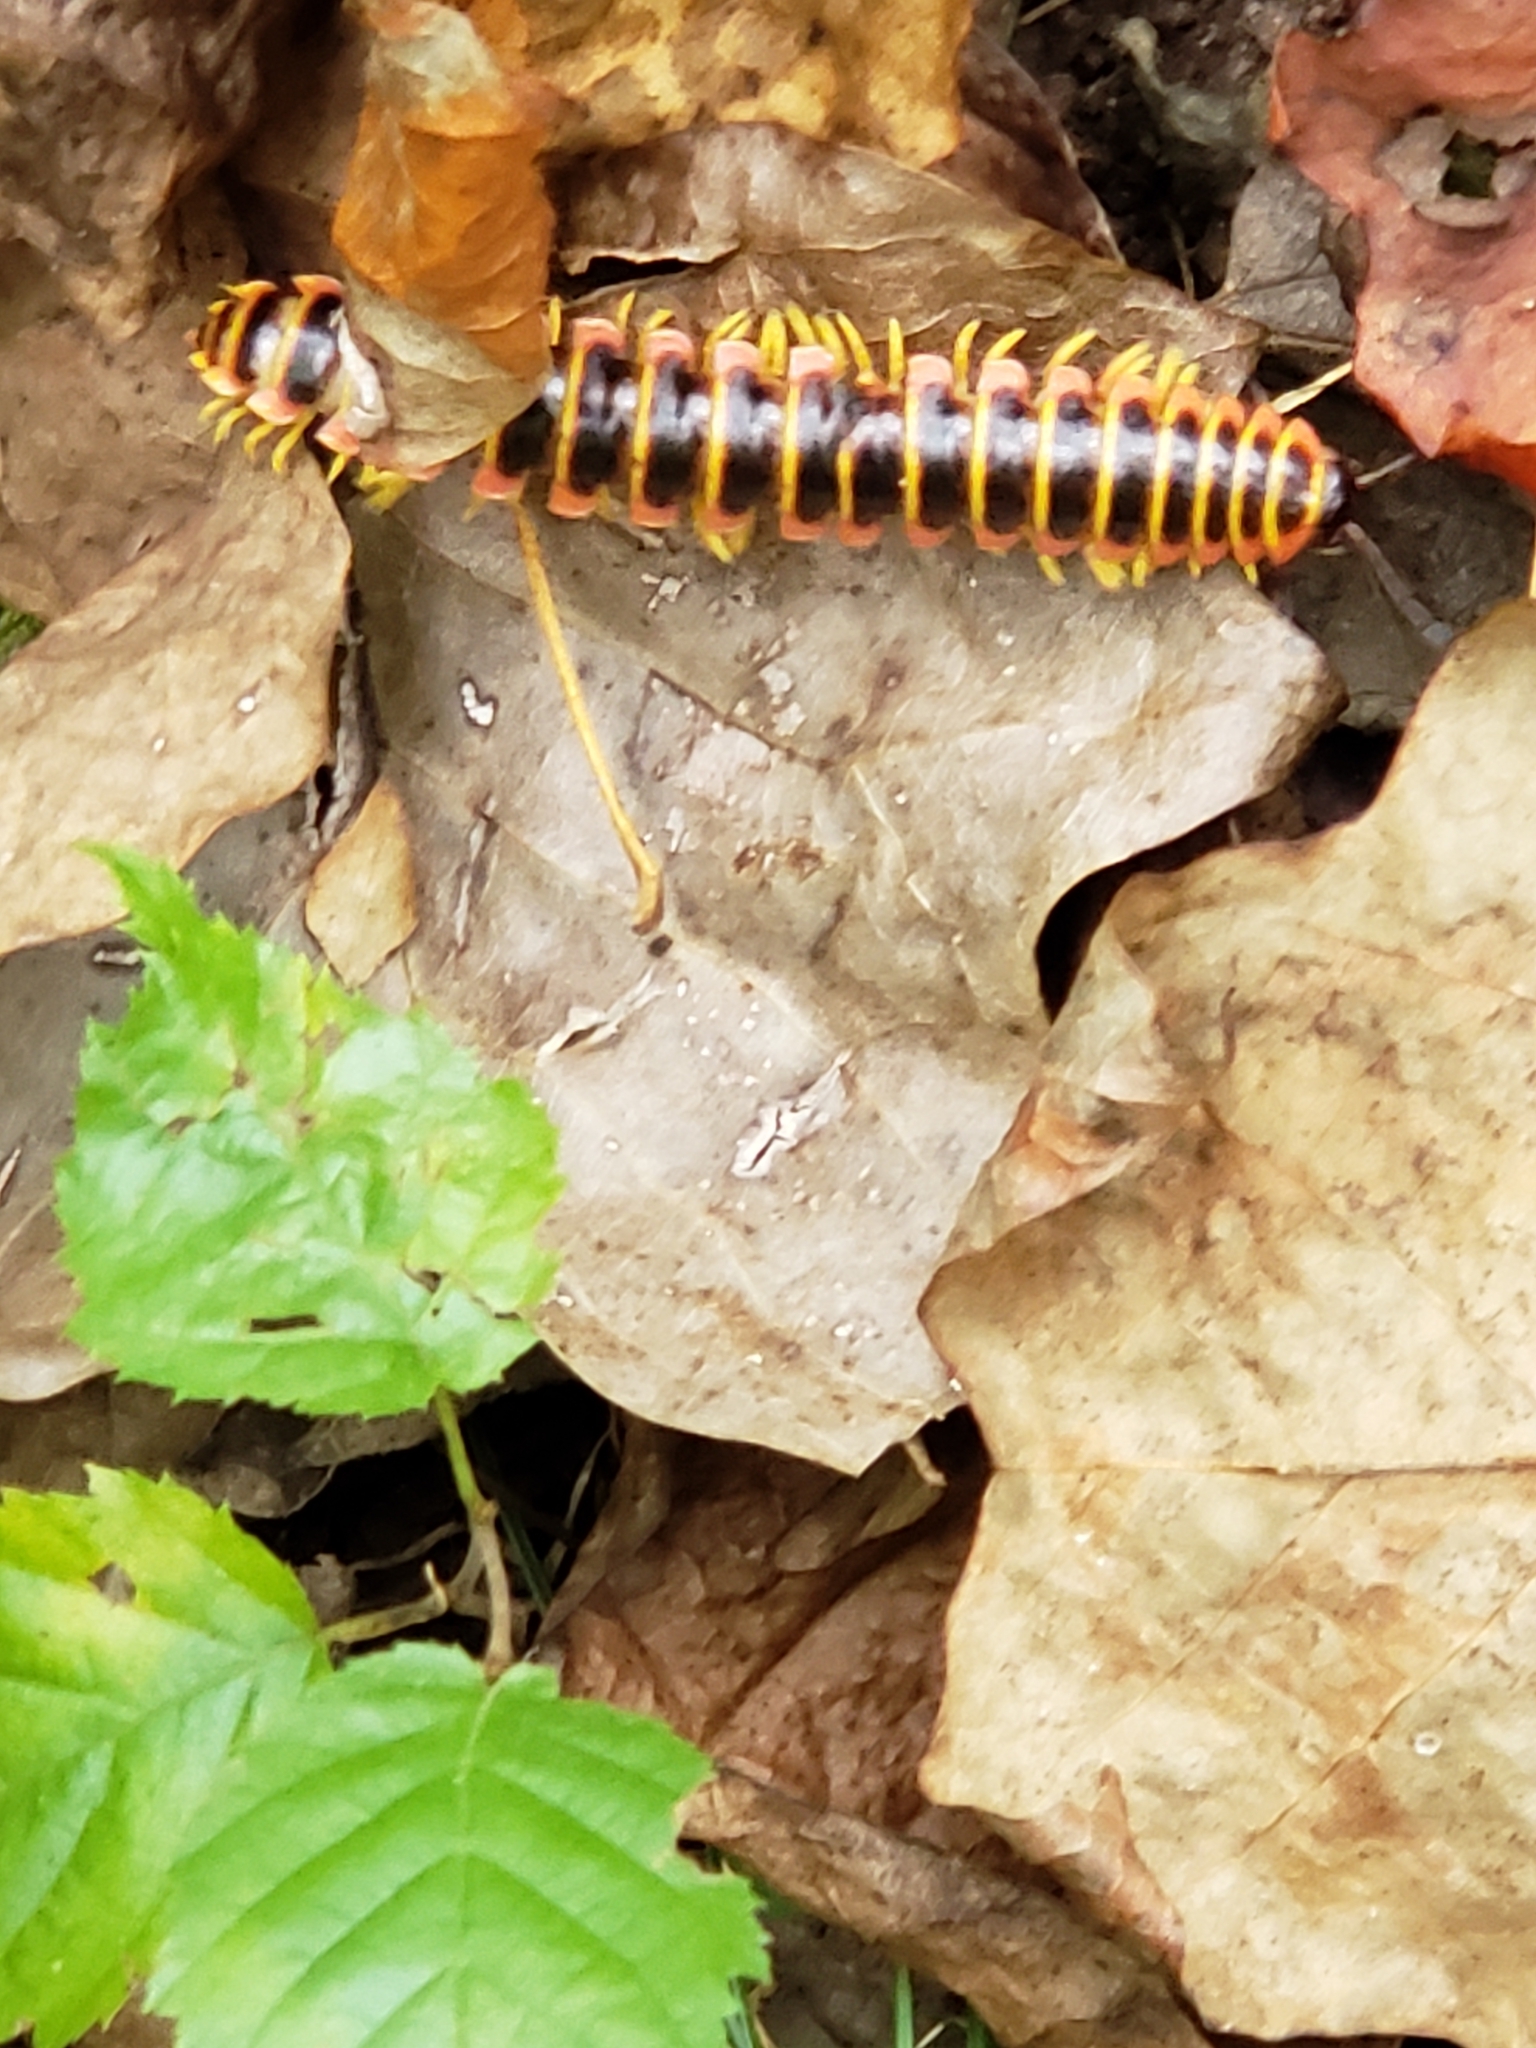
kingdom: Animalia
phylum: Arthropoda
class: Diplopoda
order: Polydesmida
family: Xystodesmidae
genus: Apheloria
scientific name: Apheloria virginiensis
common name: Black-and-gold flat millipede
